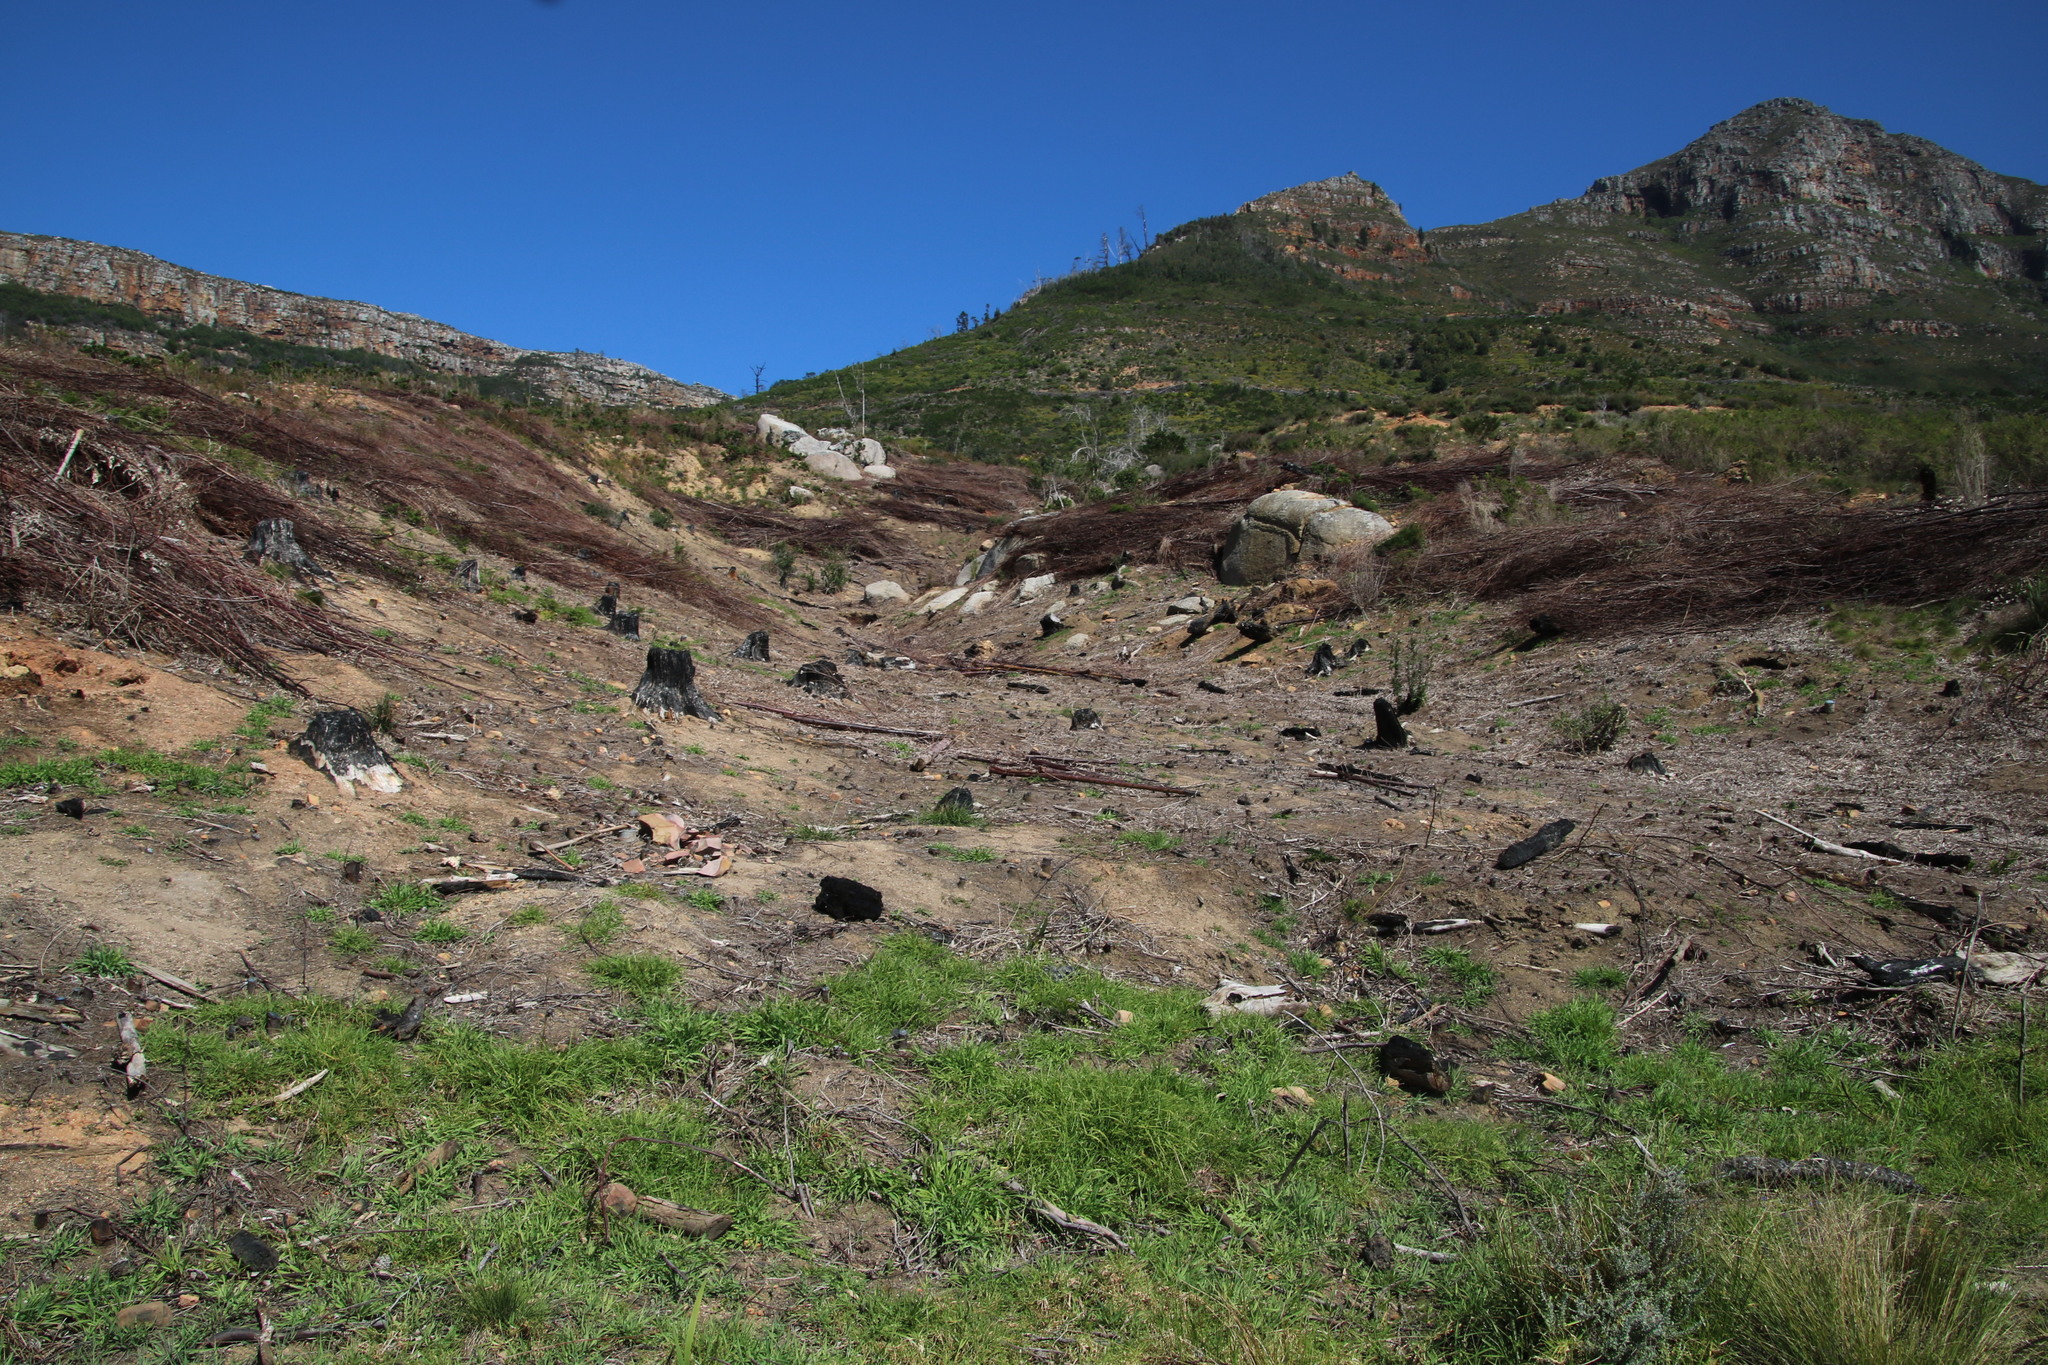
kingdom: Plantae
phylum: Tracheophyta
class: Liliopsida
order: Poales
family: Poaceae
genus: Cenchrus
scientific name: Cenchrus clandestinus
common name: Kikuyugrass
